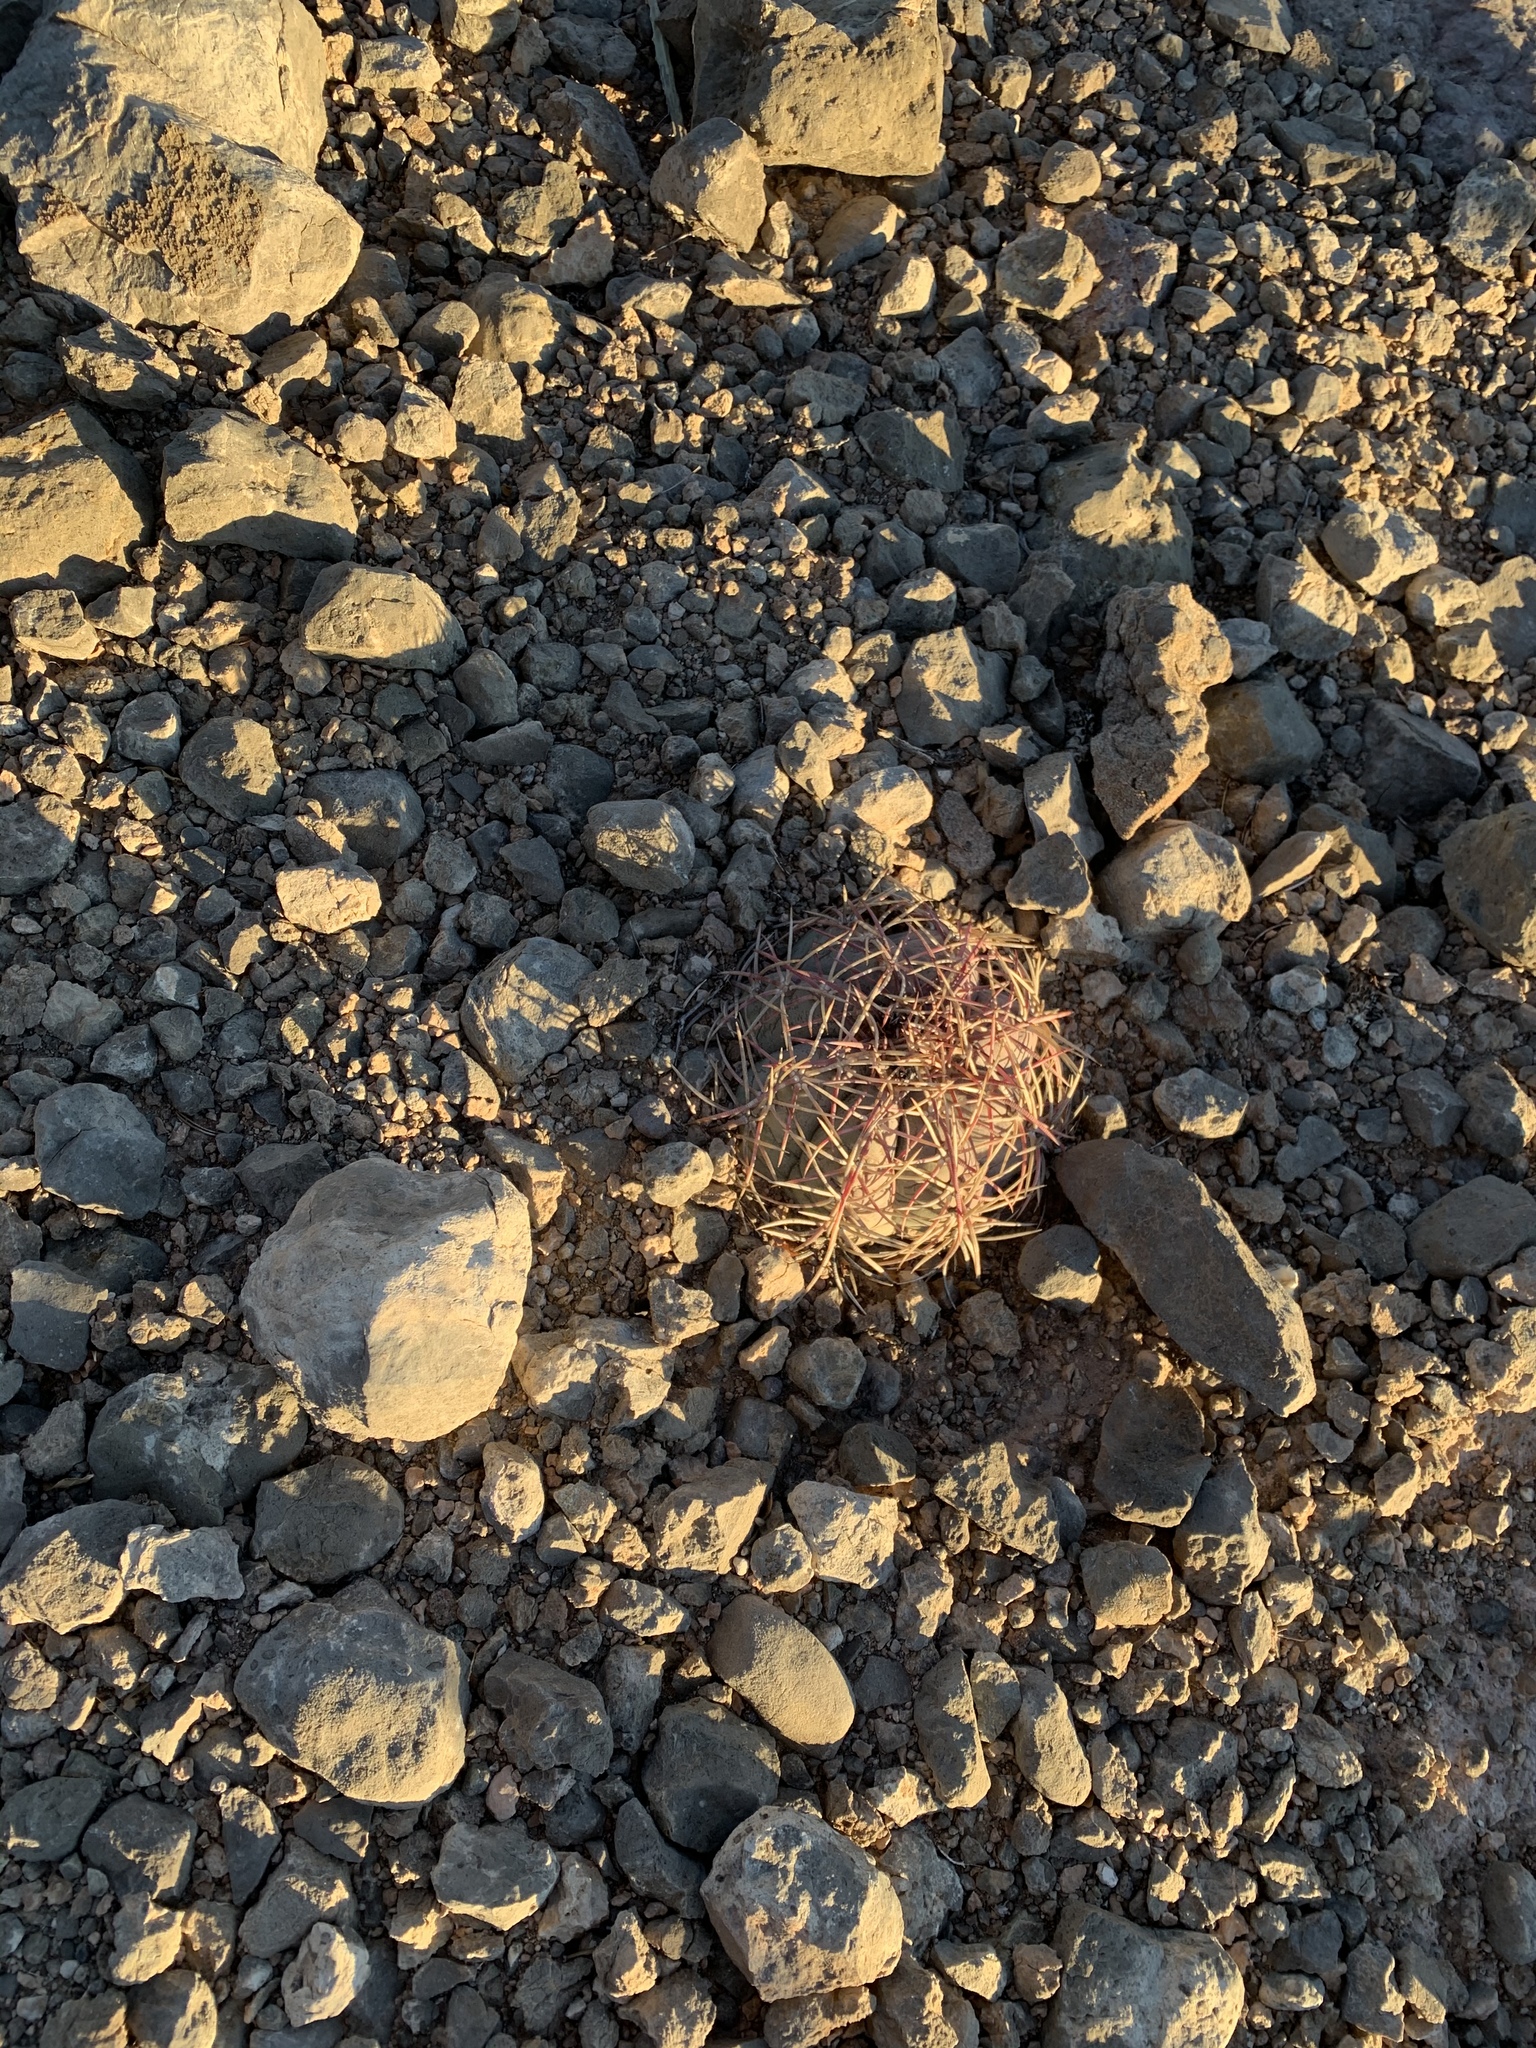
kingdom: Plantae
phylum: Tracheophyta
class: Magnoliopsida
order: Caryophyllales
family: Cactaceae
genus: Echinocactus
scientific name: Echinocactus horizonthalonius
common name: Devilshead
